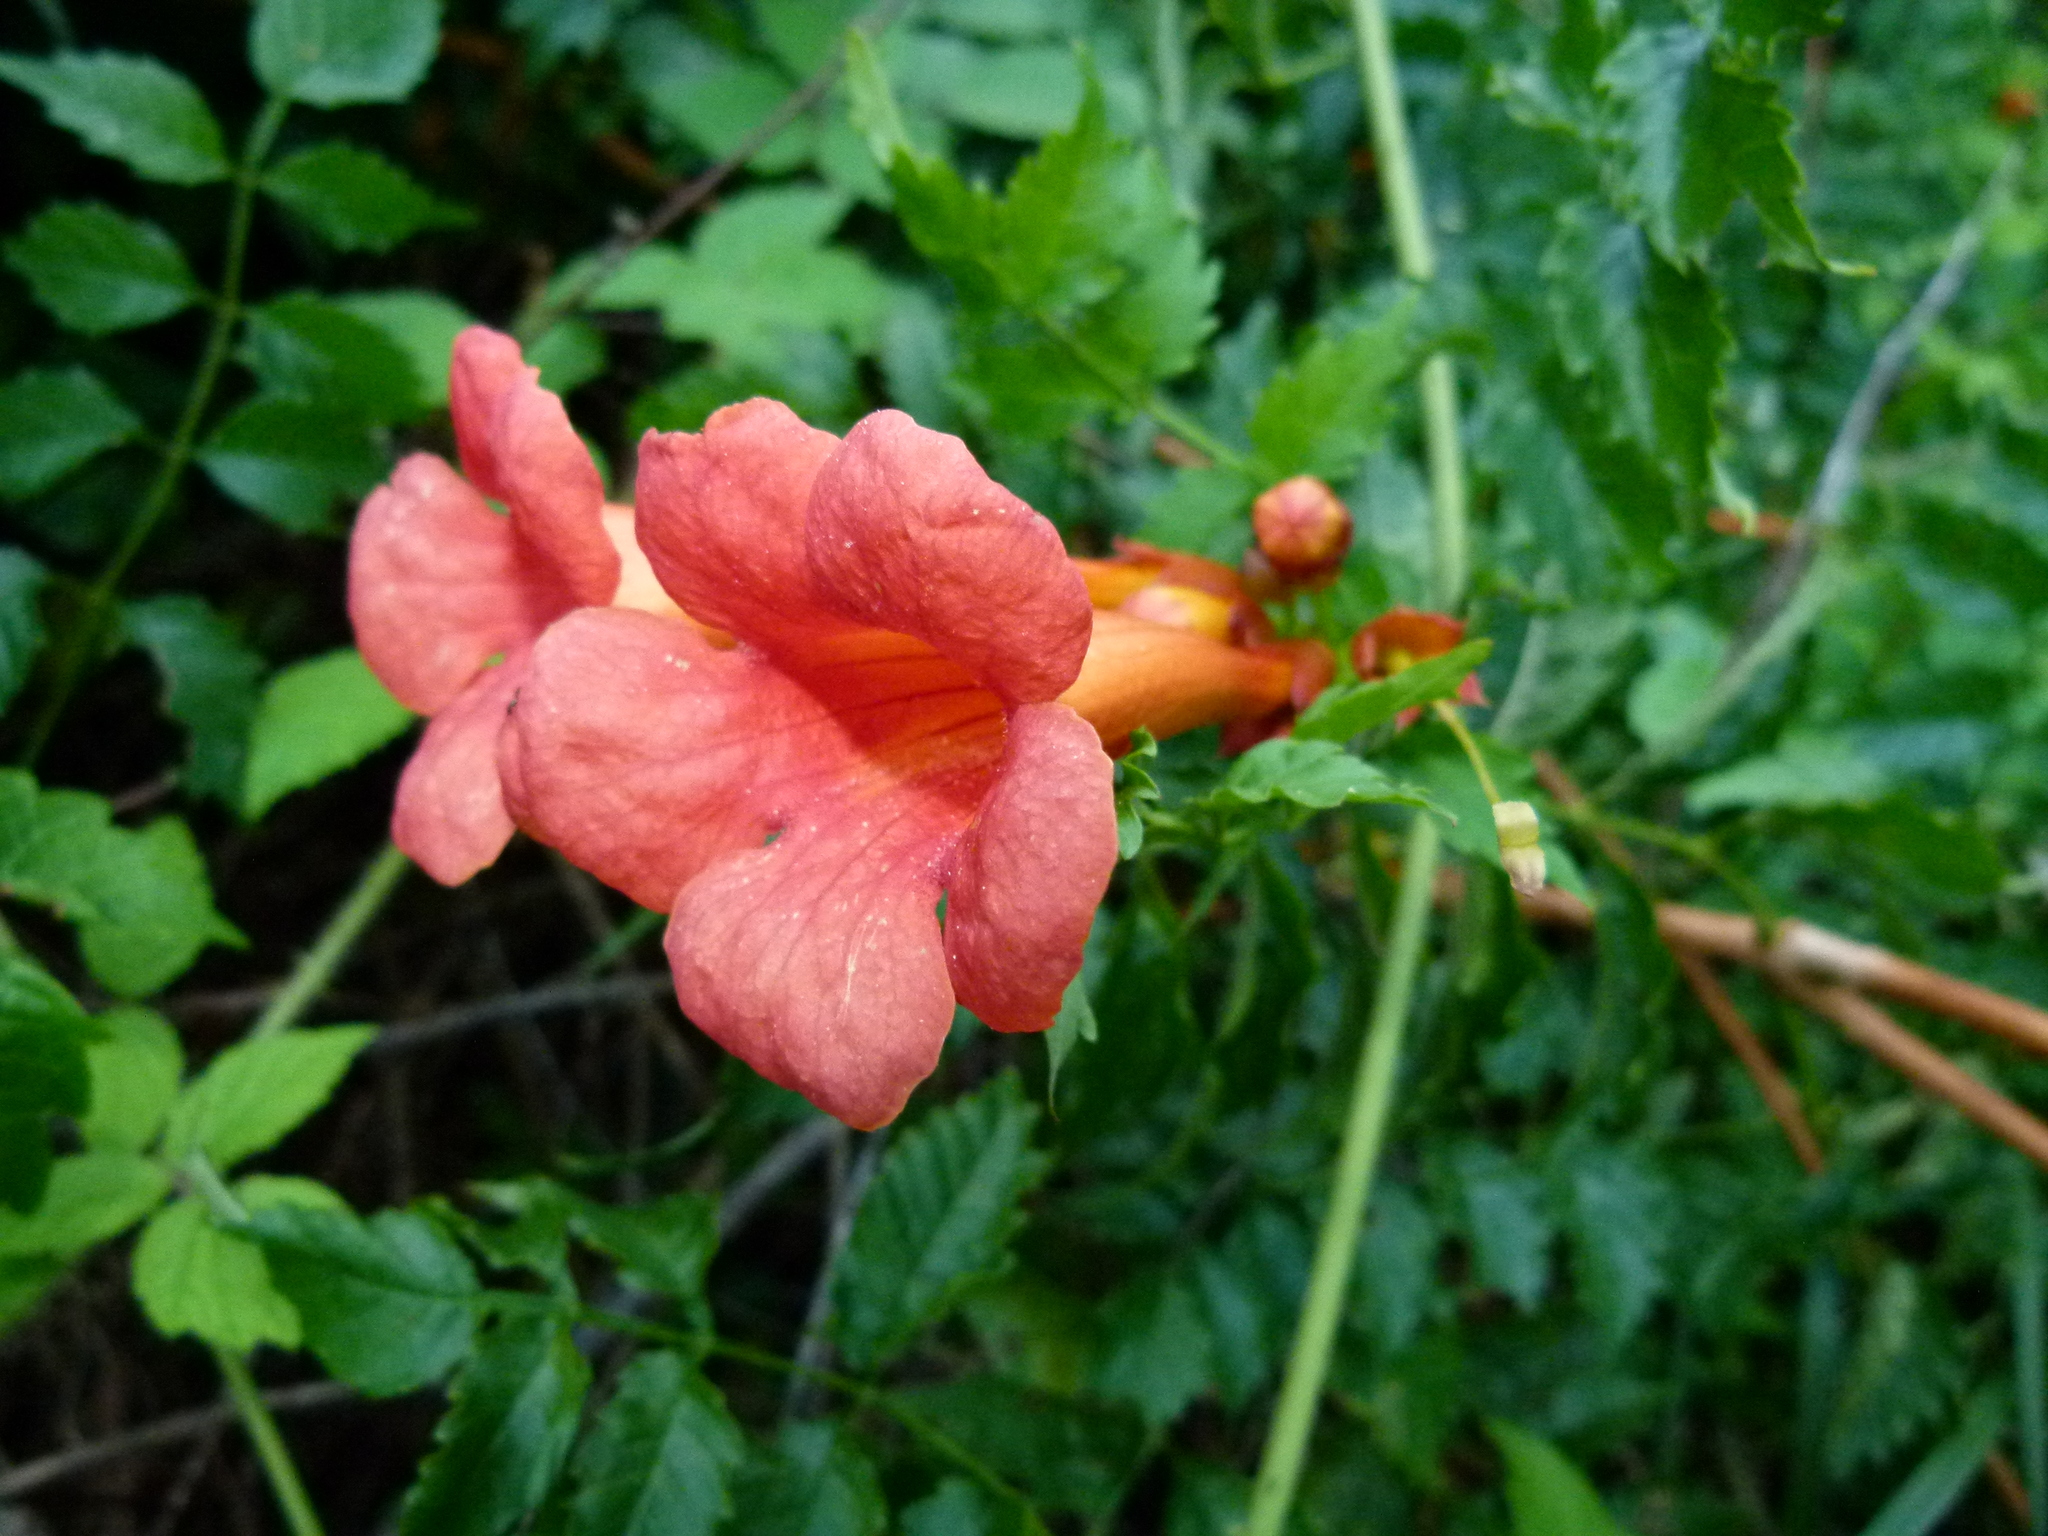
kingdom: Plantae
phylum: Tracheophyta
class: Magnoliopsida
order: Lamiales
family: Bignoniaceae
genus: Campsis
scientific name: Campsis radicans
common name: Trumpet-creeper
